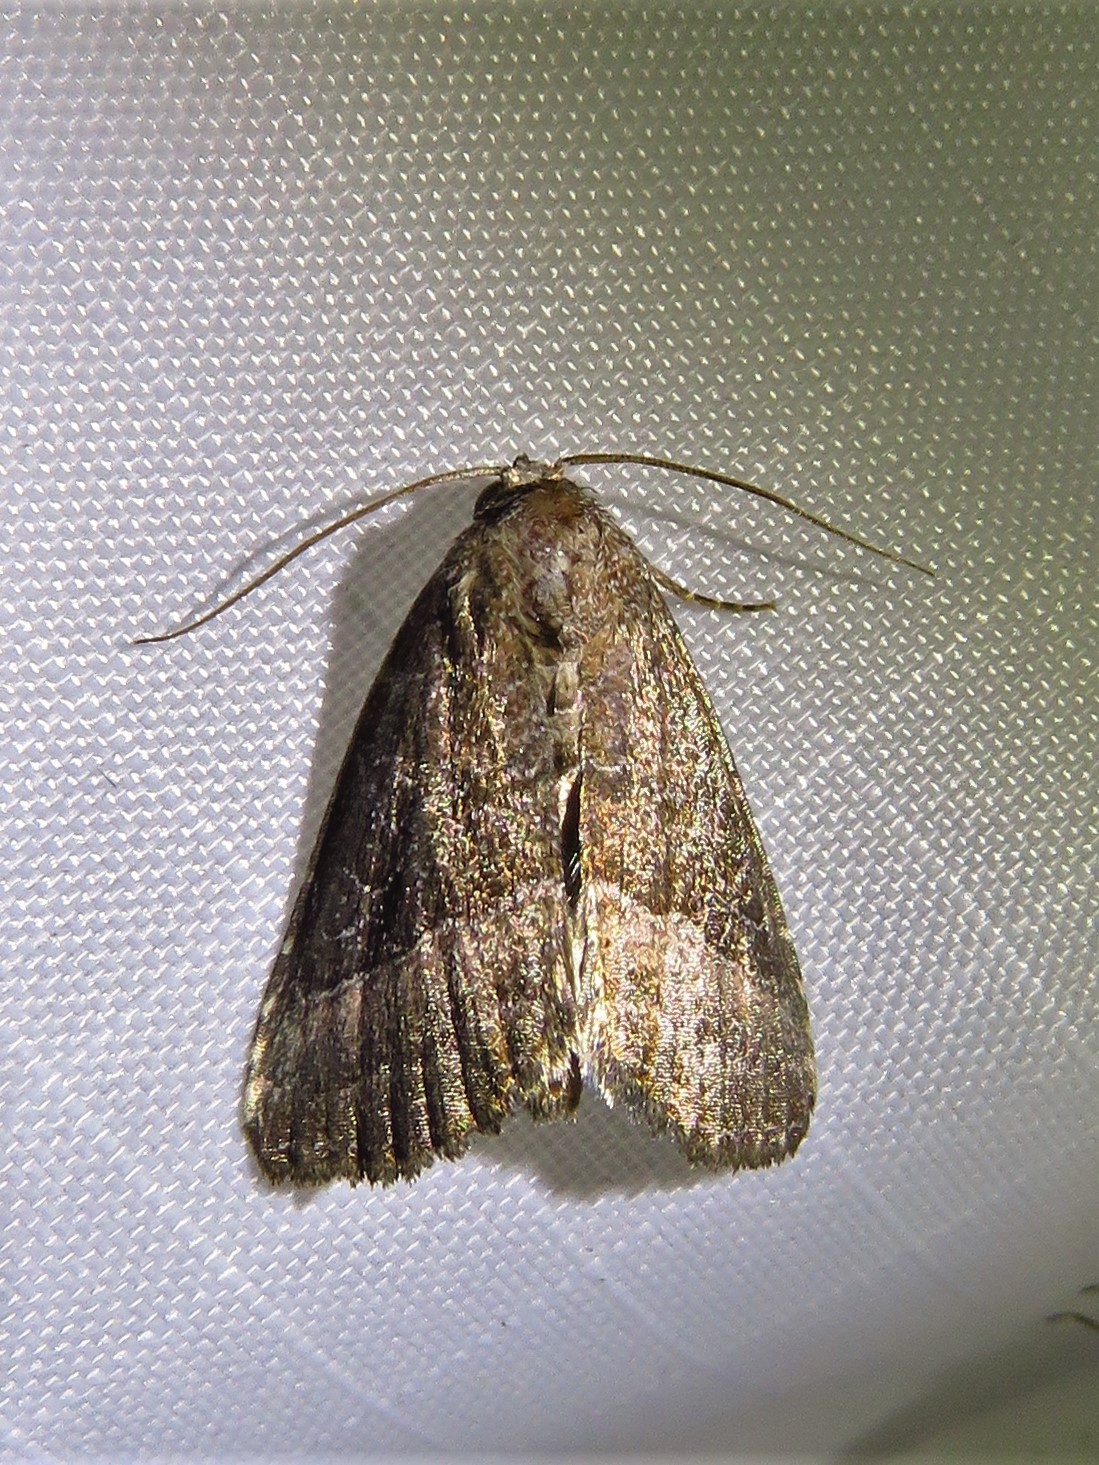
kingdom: Animalia
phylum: Arthropoda
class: Insecta
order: Lepidoptera
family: Noctuidae
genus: Ogdoconta
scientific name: Ogdoconta cinereola
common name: Common pinkband
